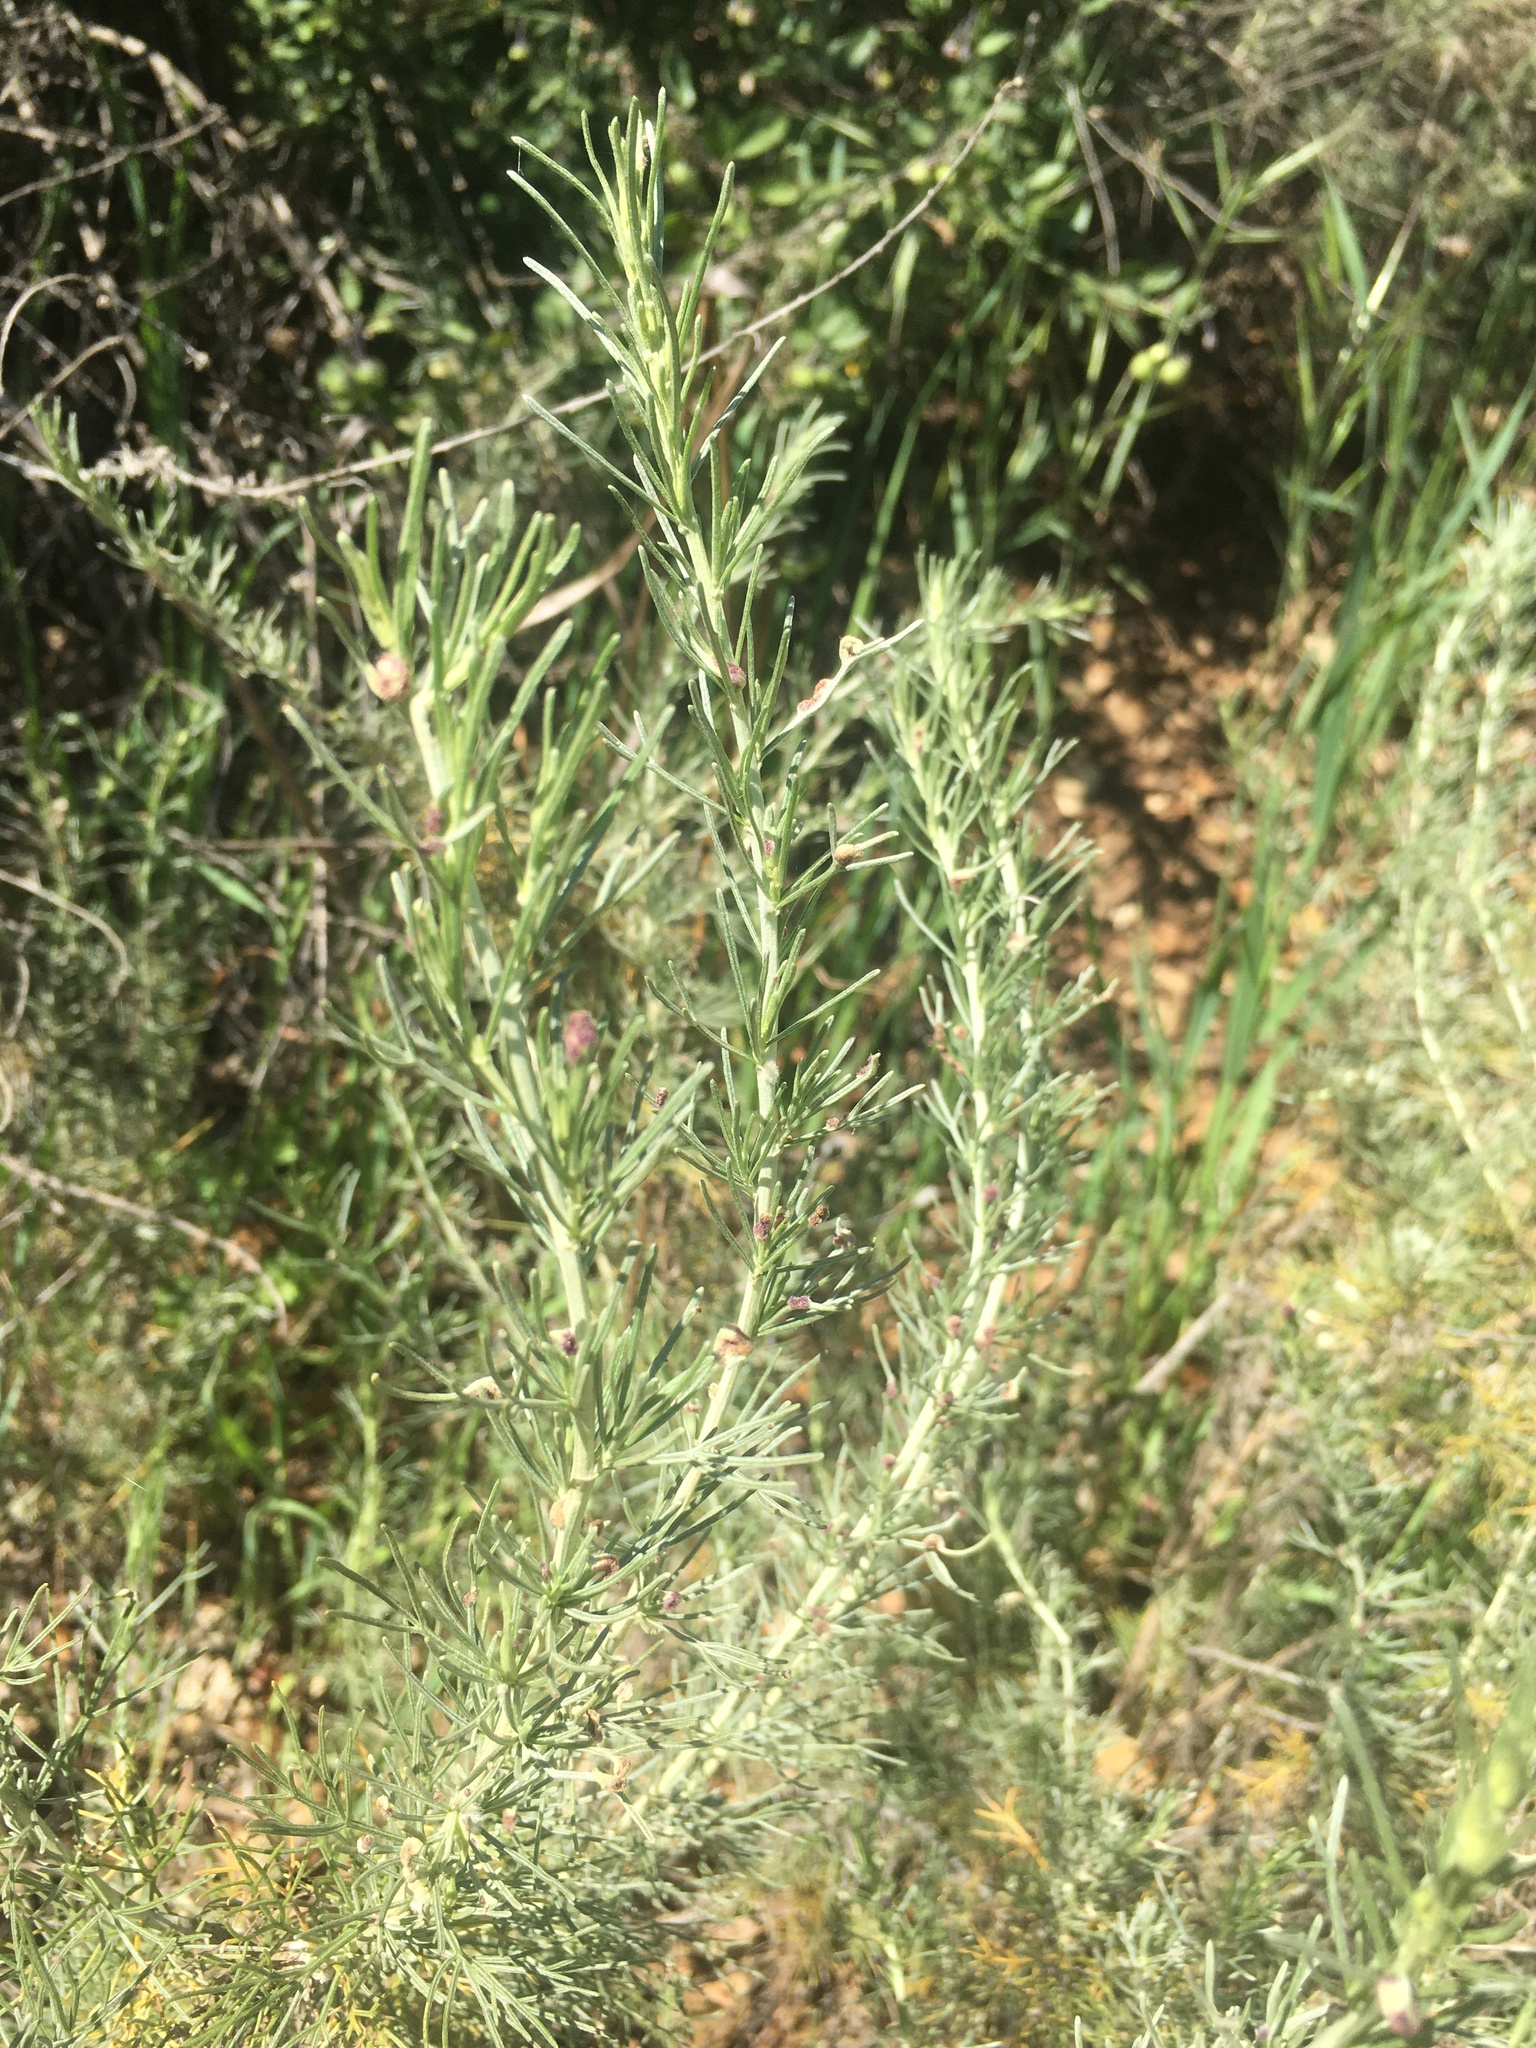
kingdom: Plantae
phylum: Tracheophyta
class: Magnoliopsida
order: Asterales
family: Asteraceae
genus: Artemisia
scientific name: Artemisia californica
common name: California sagebrush
